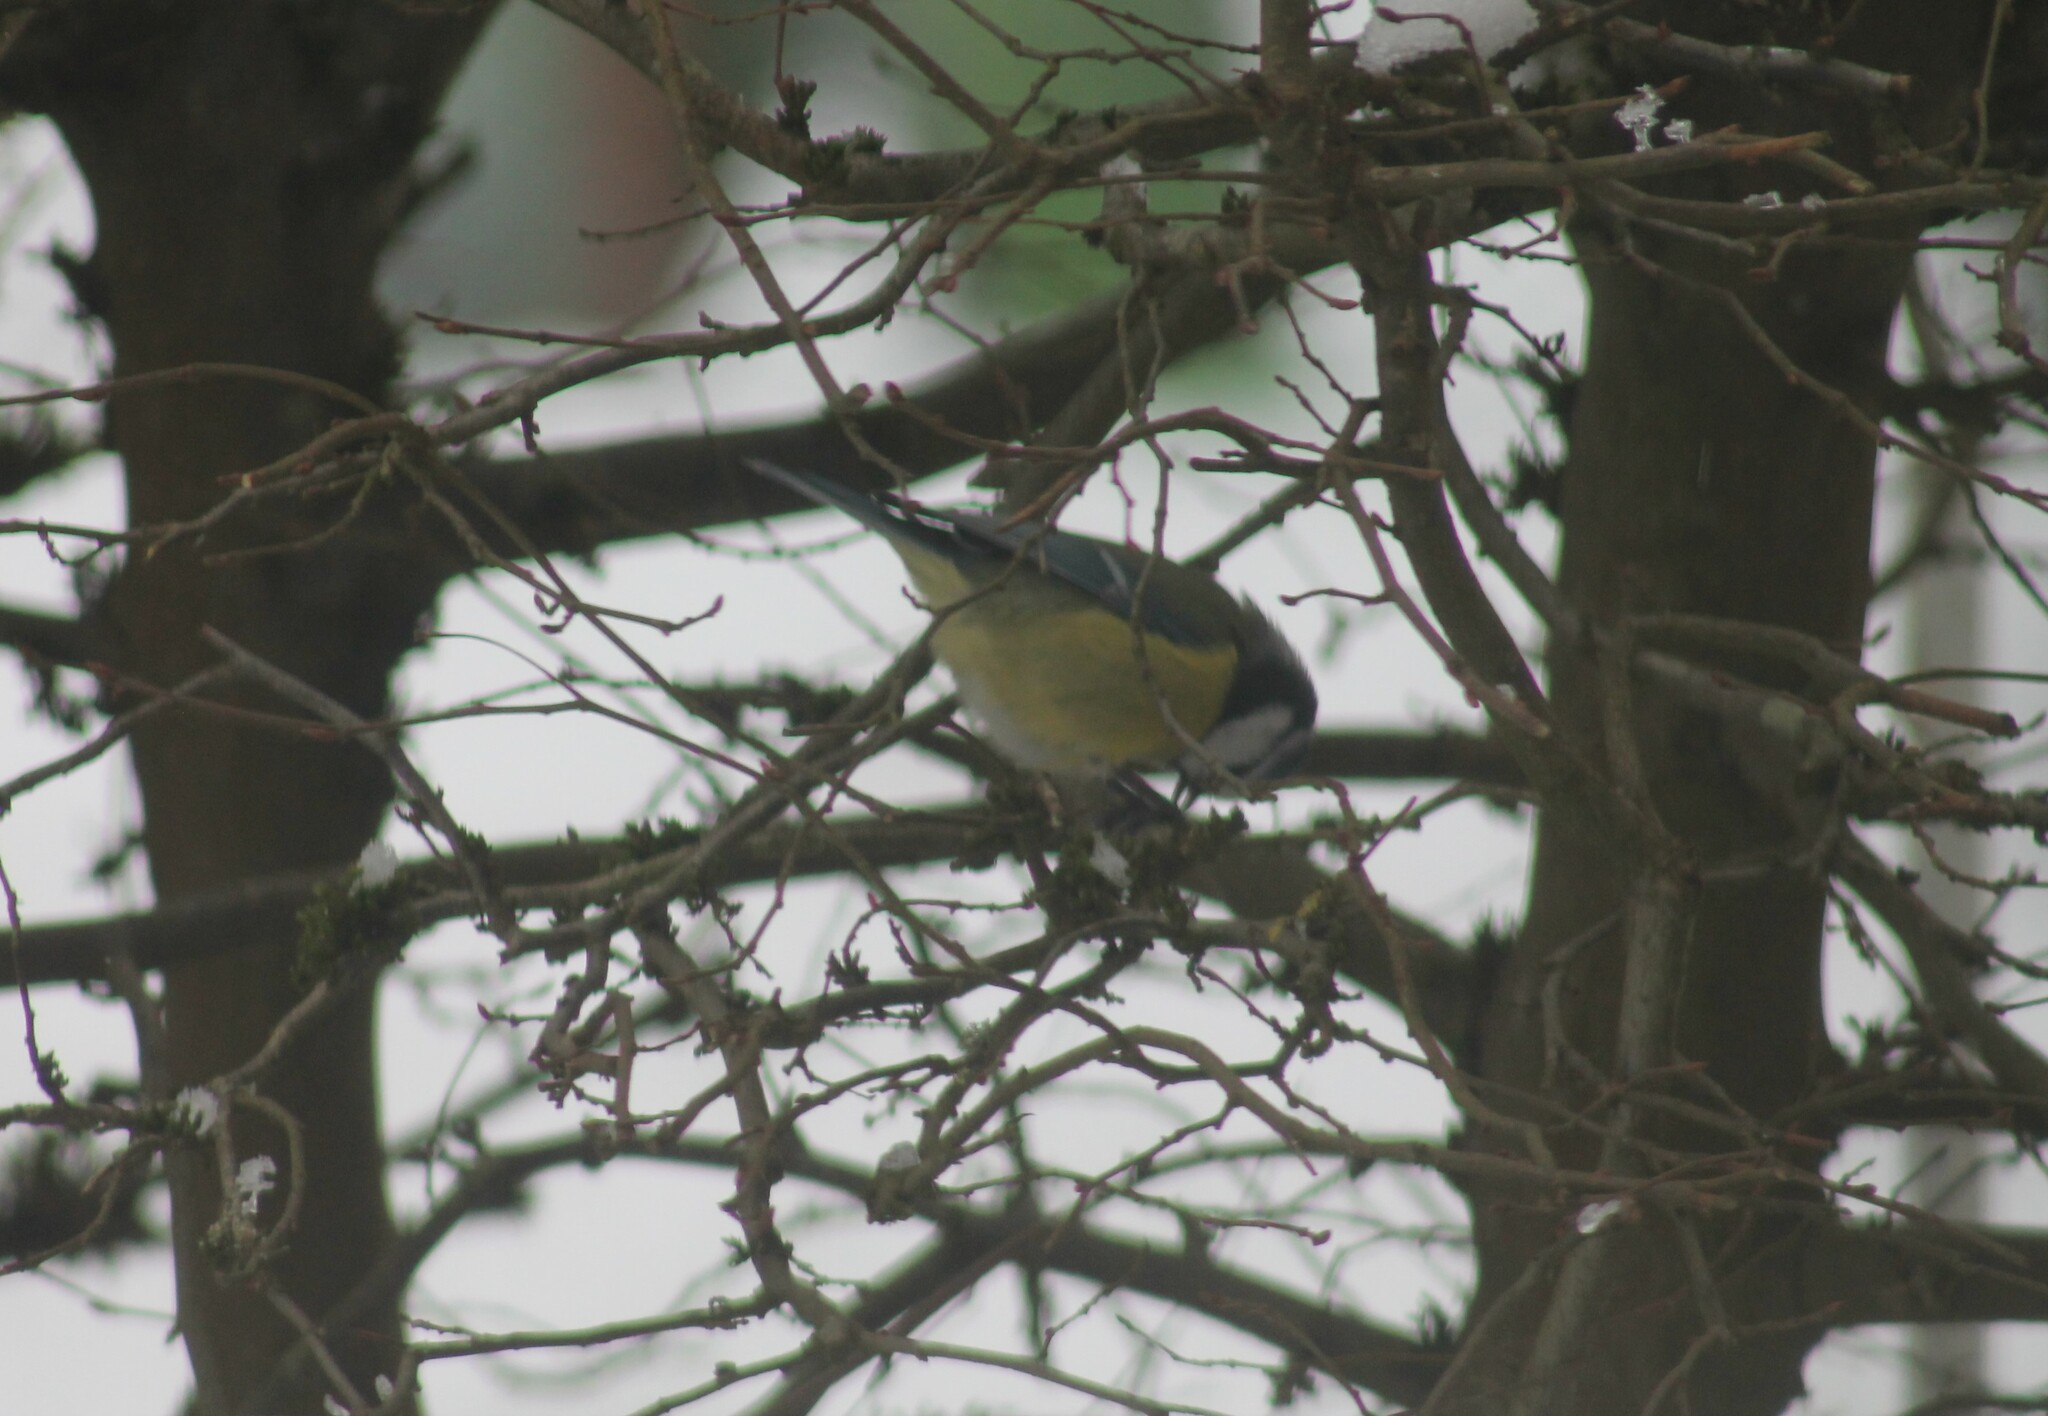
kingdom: Animalia
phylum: Chordata
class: Aves
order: Passeriformes
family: Paridae
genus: Cyanistes
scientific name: Cyanistes caeruleus
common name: Eurasian blue tit
